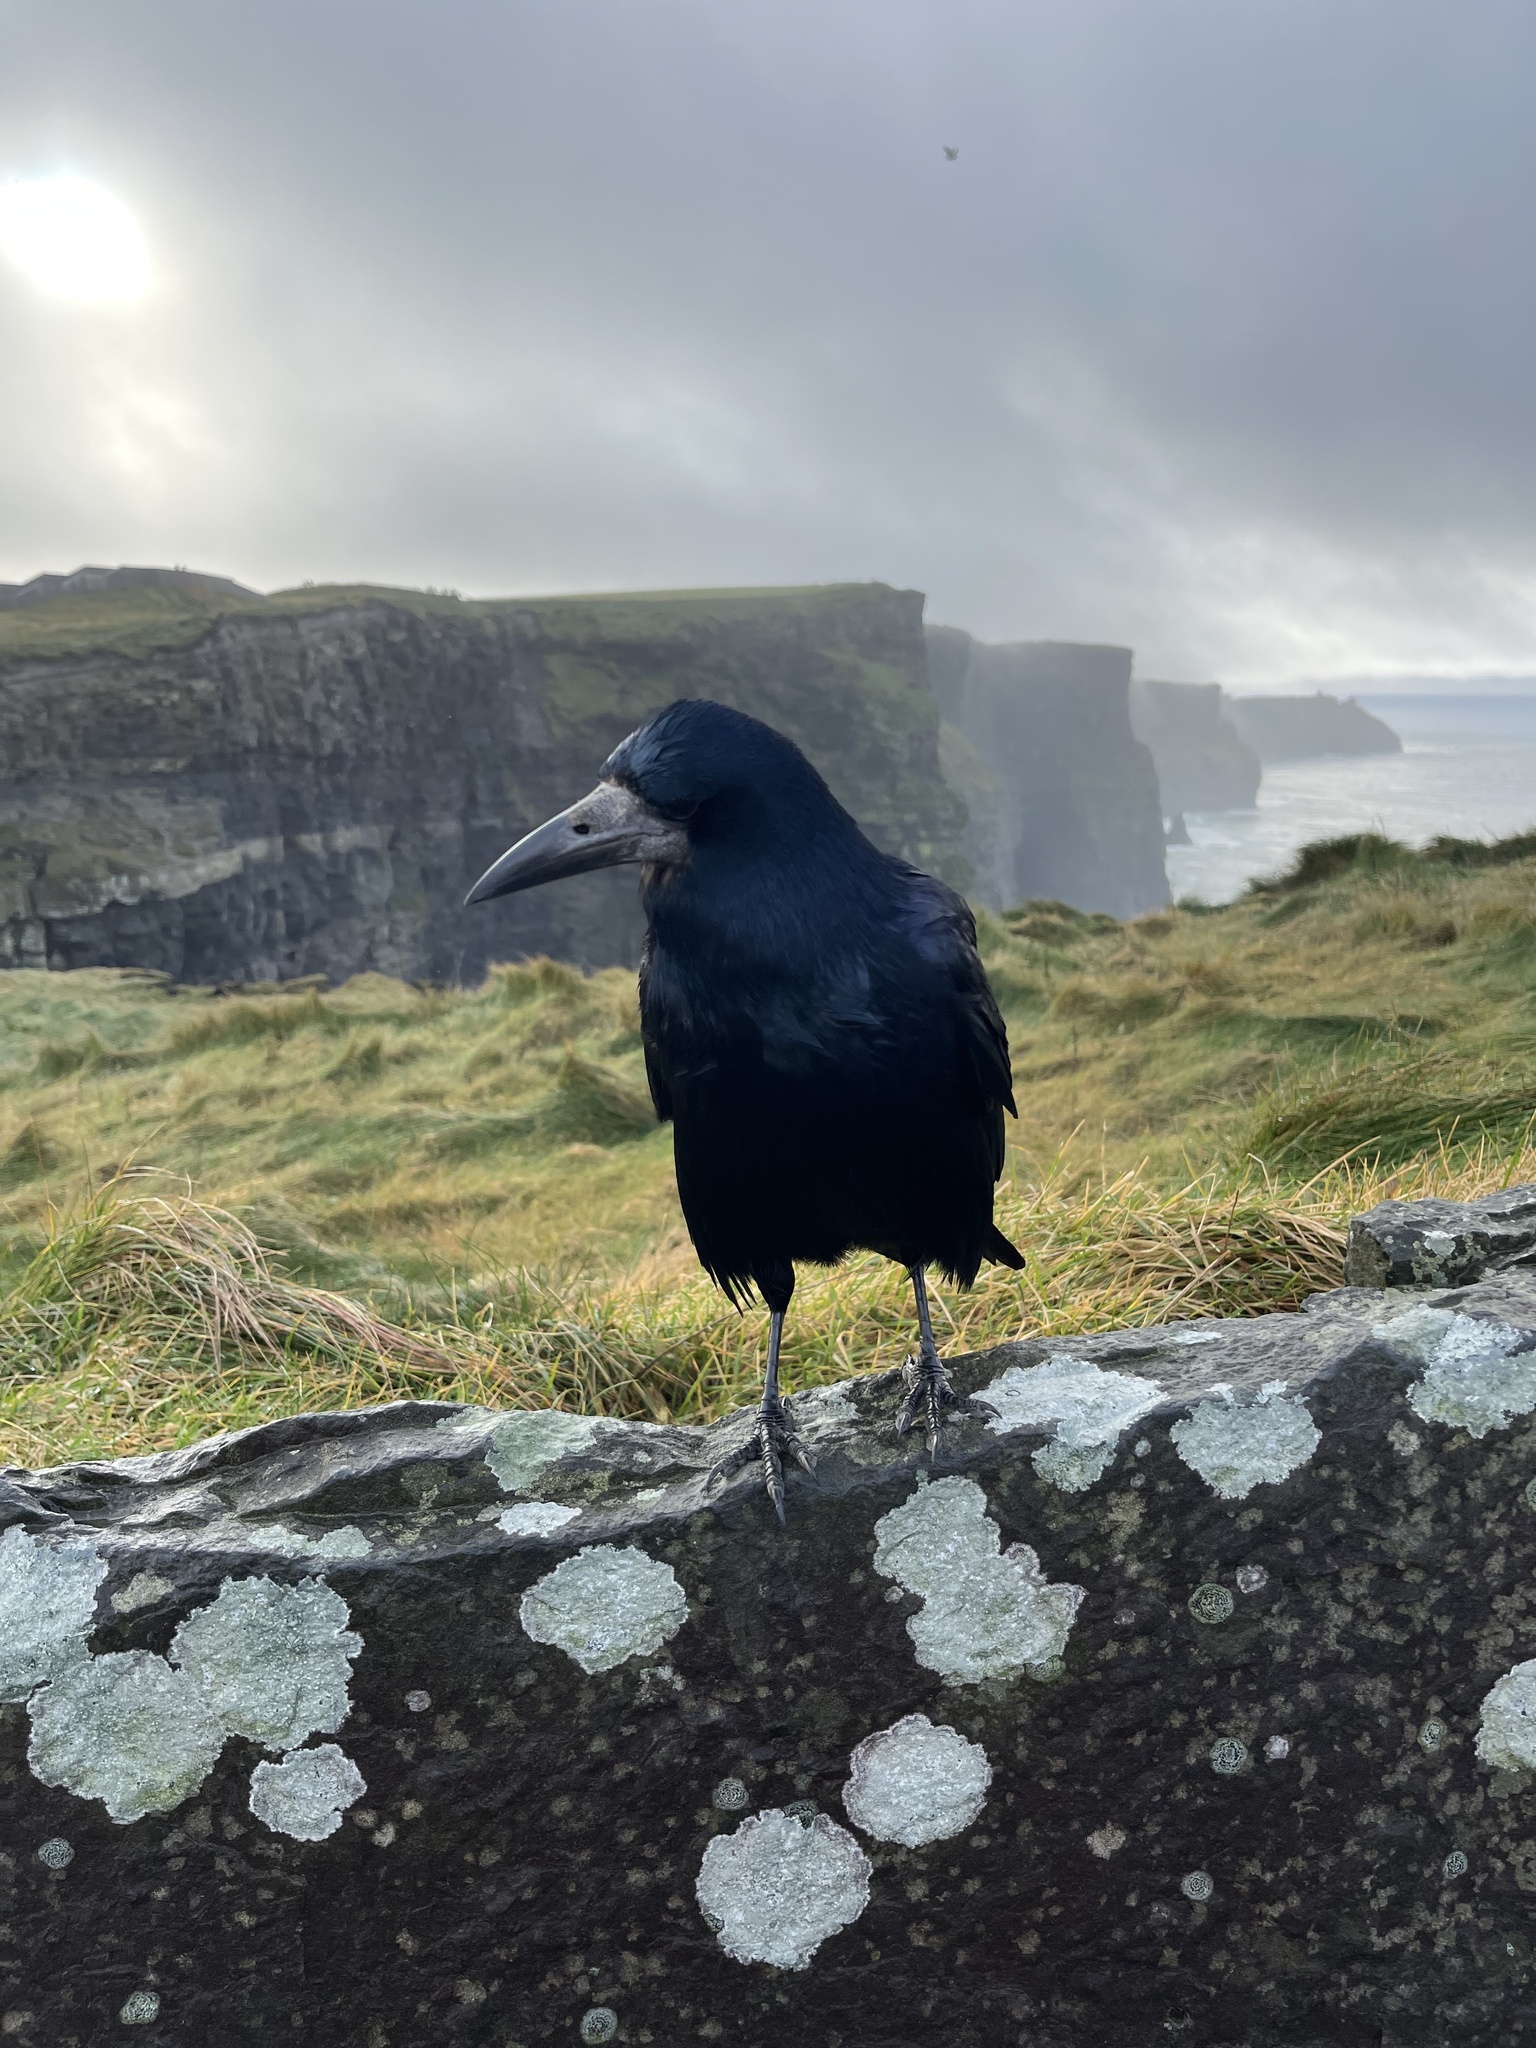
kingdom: Animalia
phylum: Chordata
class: Aves
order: Passeriformes
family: Corvidae
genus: Corvus
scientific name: Corvus frugilegus
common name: Rook
